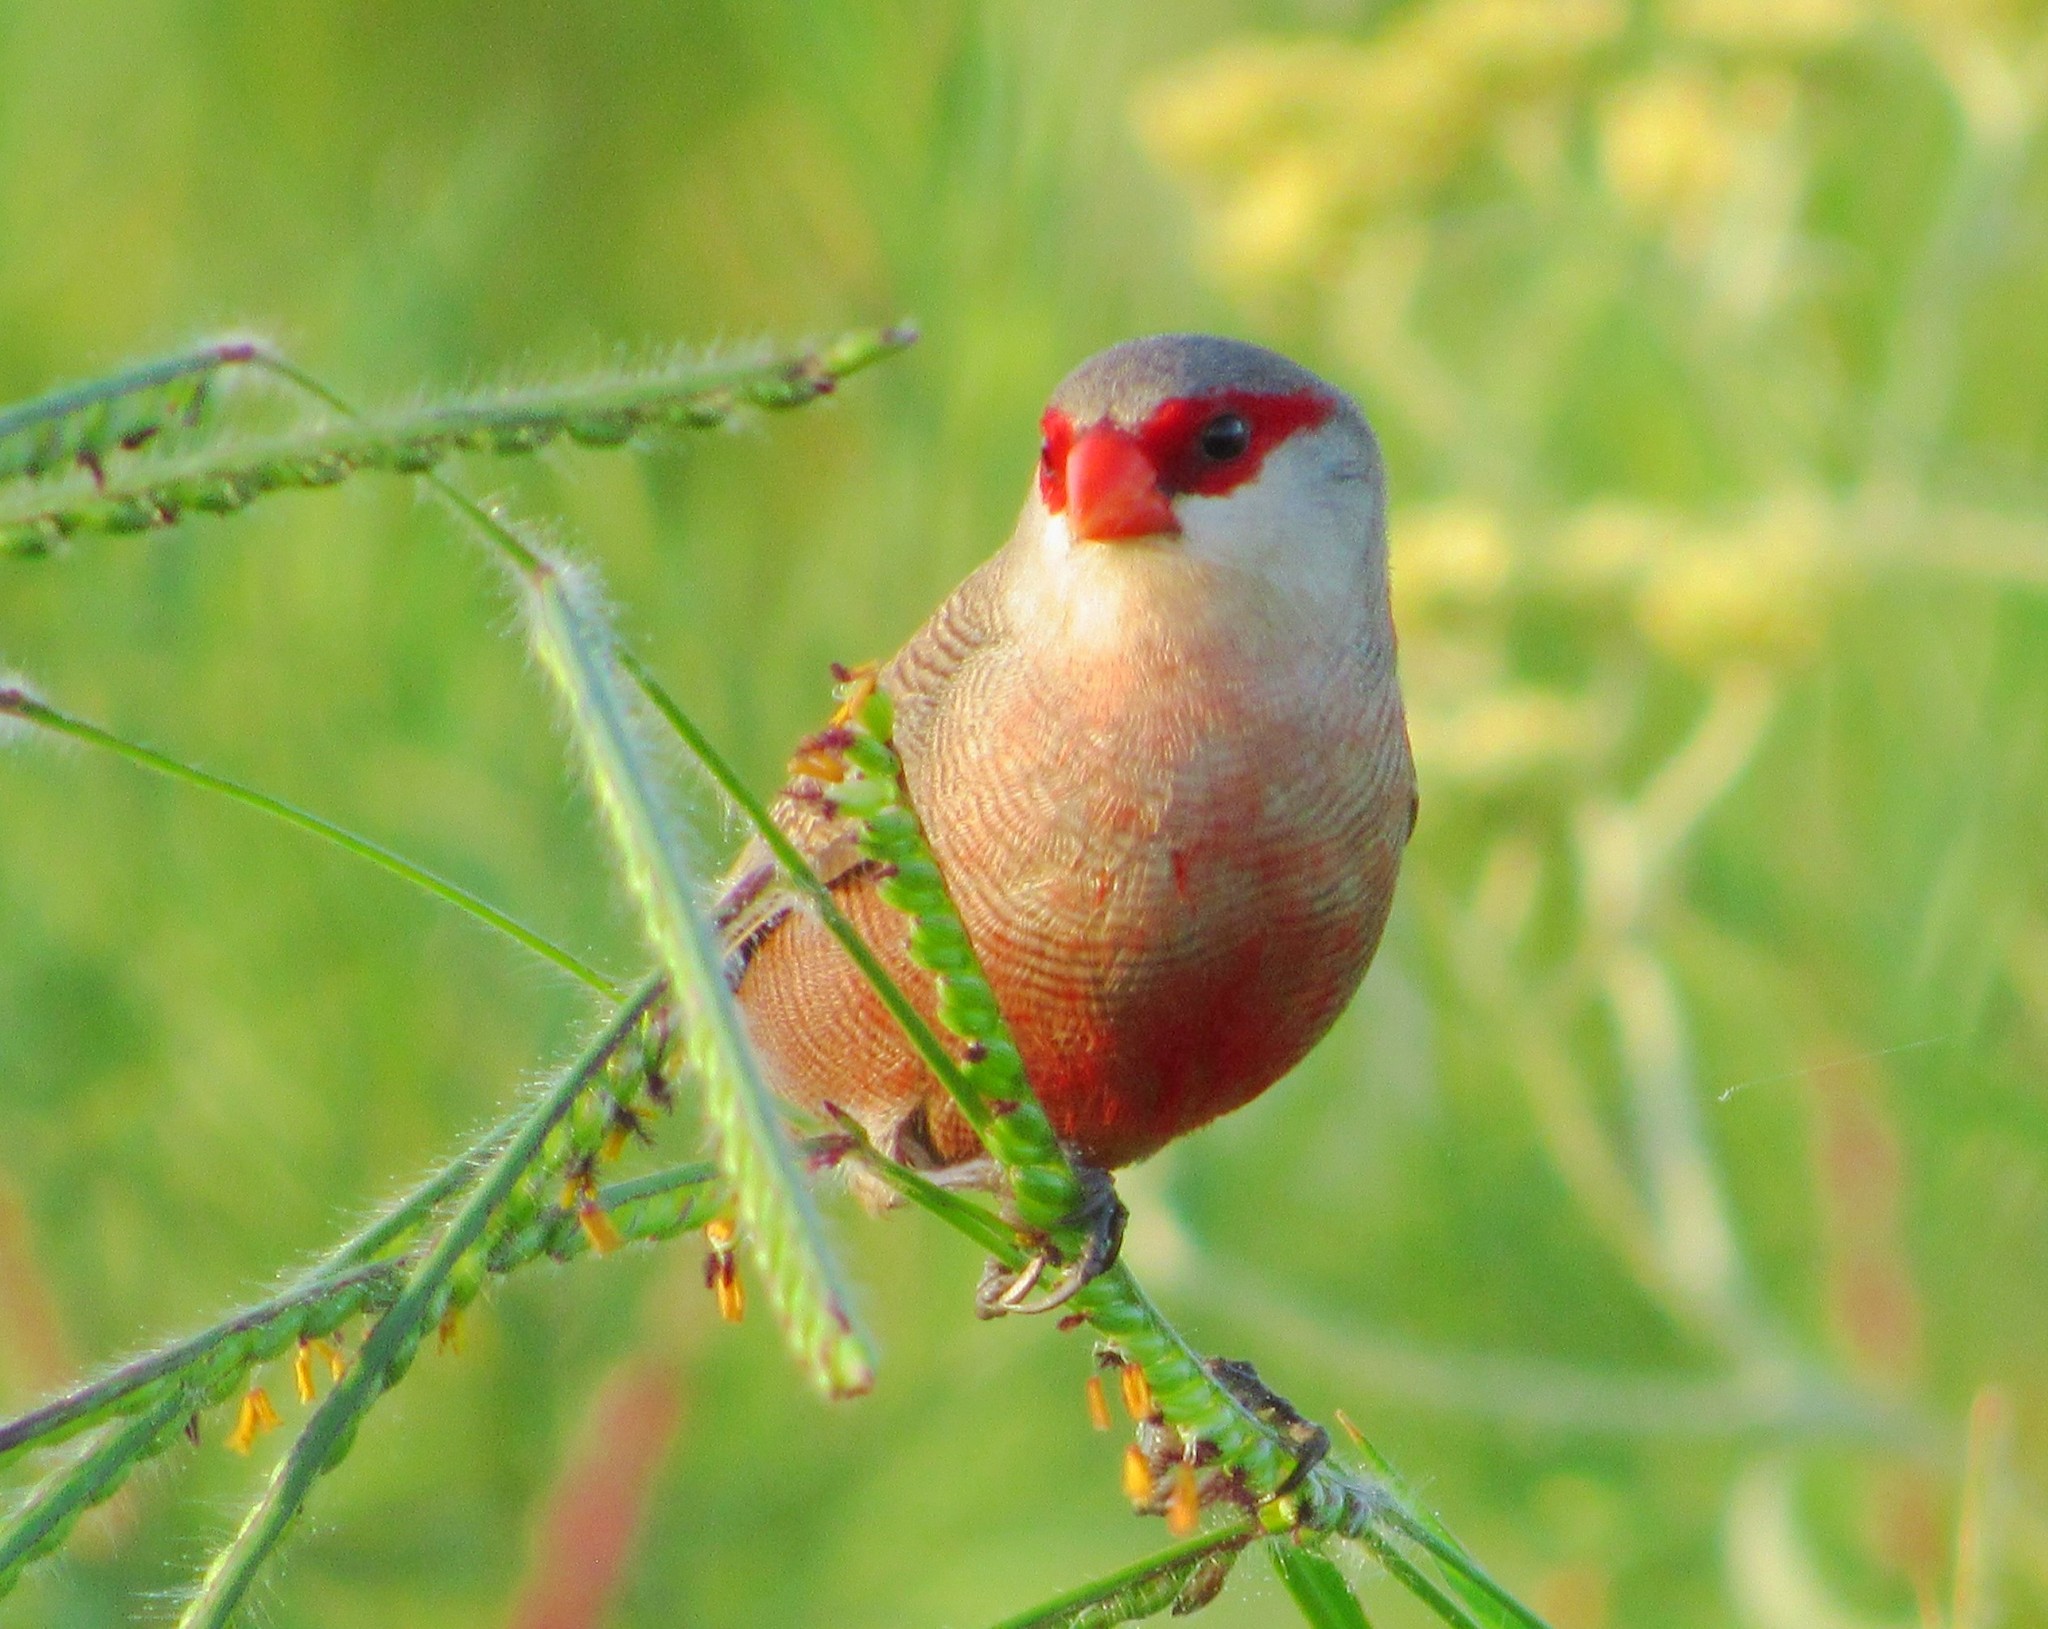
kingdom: Animalia
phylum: Chordata
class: Aves
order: Passeriformes
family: Estrildidae
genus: Estrilda
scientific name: Estrilda astrild
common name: Common waxbill
